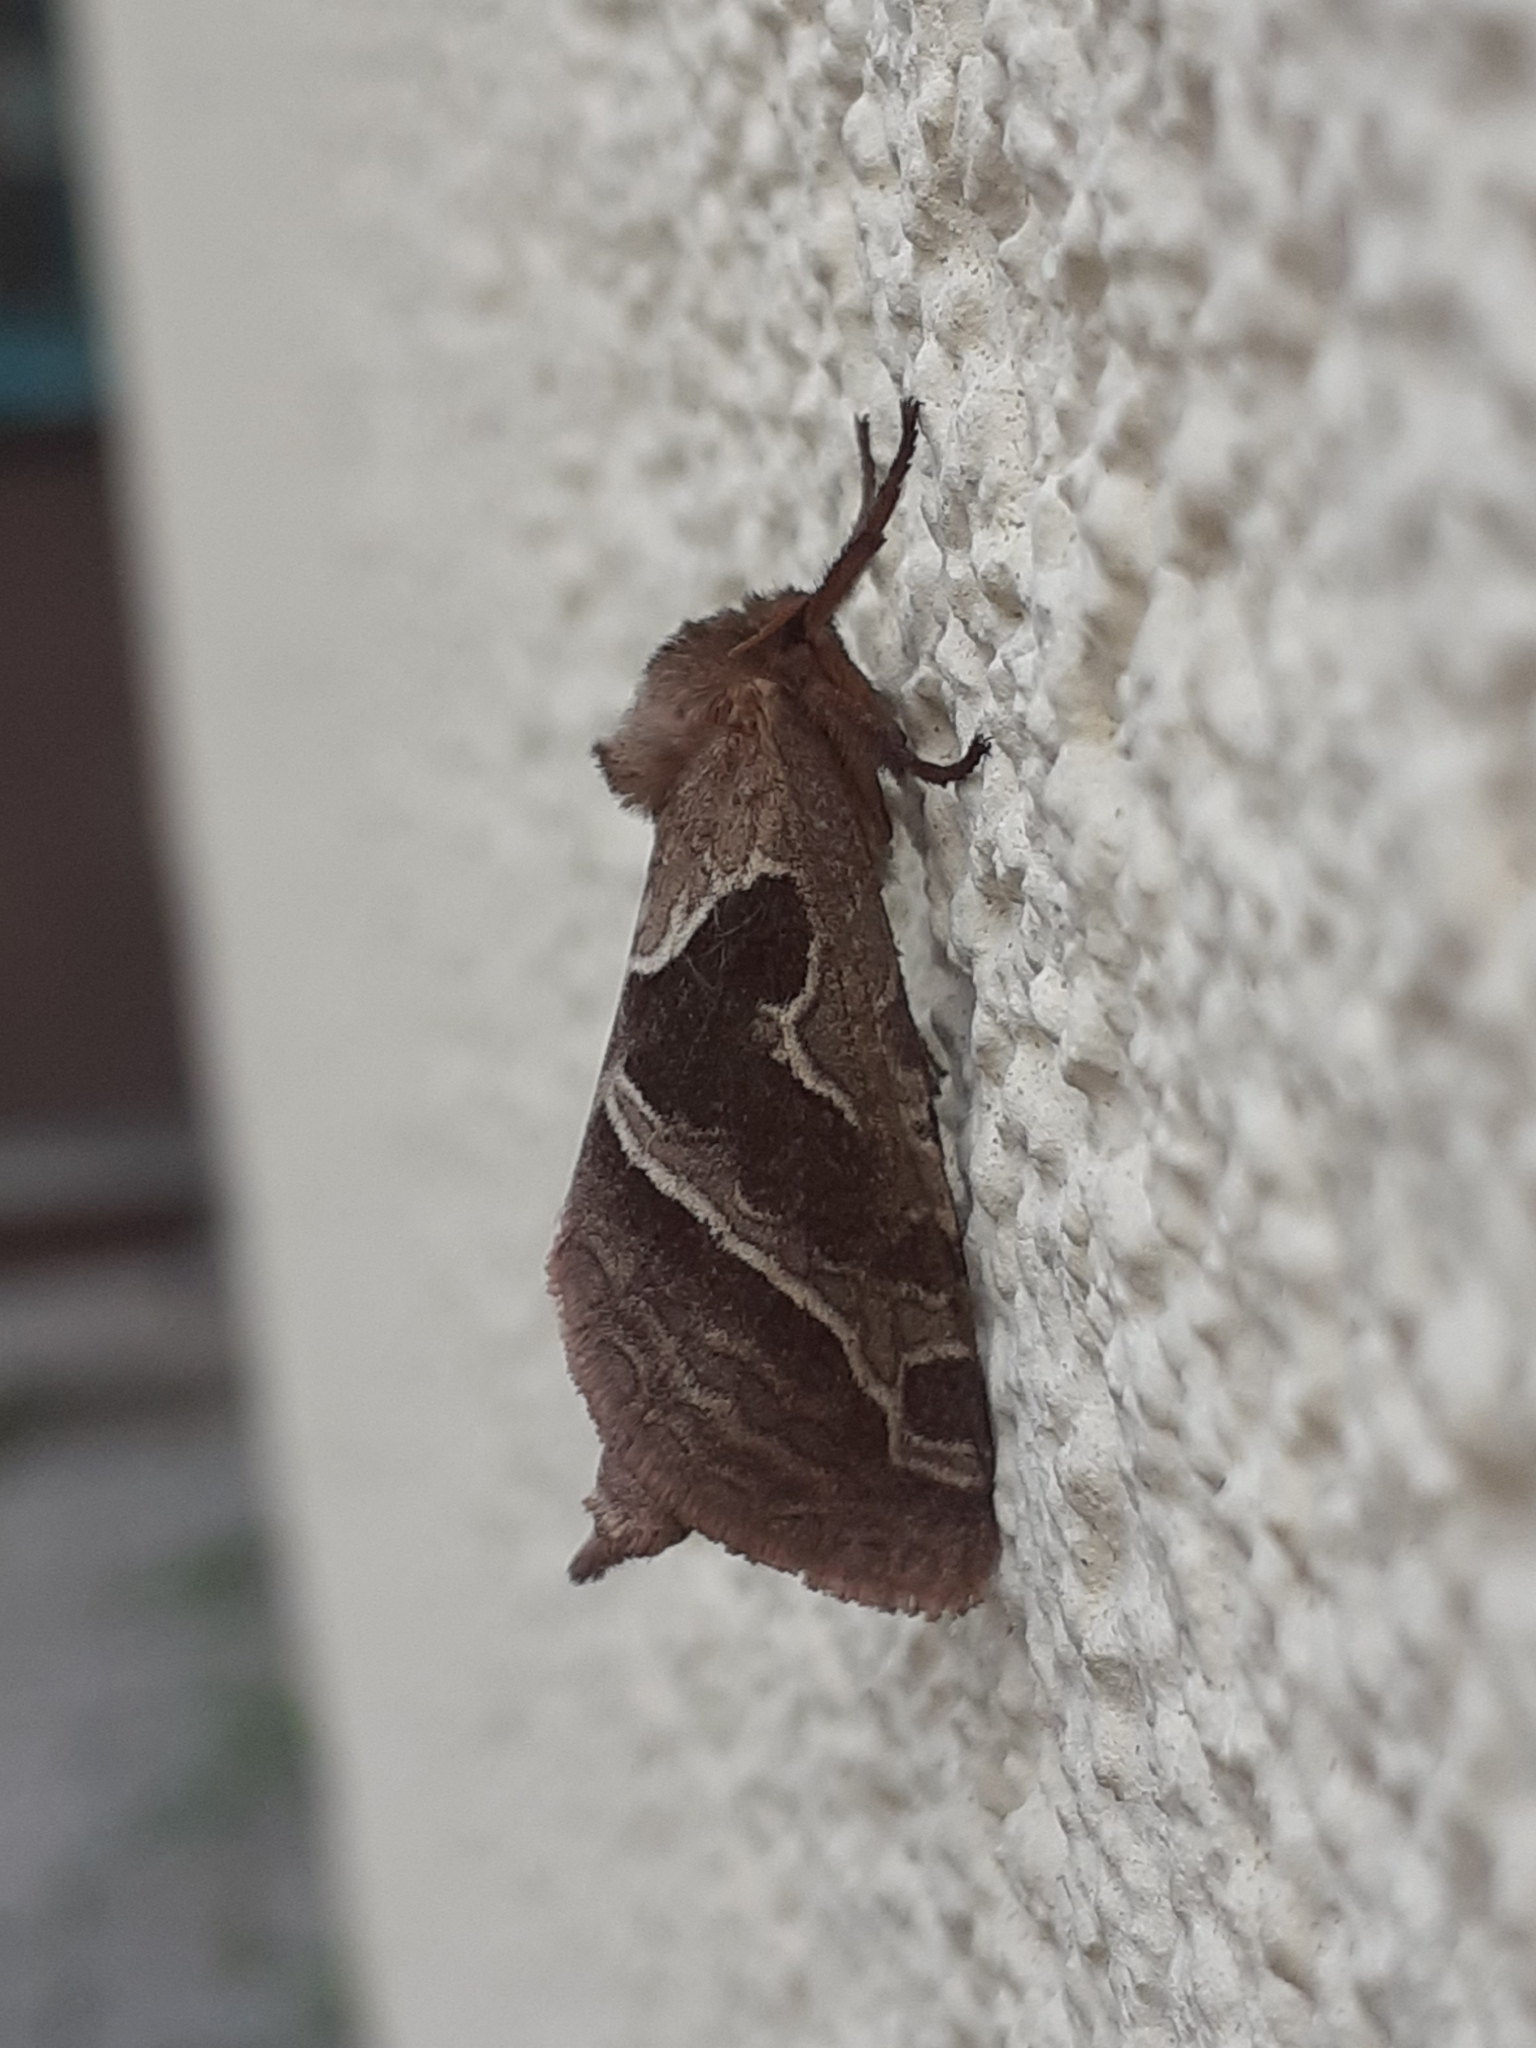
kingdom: Animalia
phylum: Arthropoda
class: Insecta
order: Lepidoptera
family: Hepialidae
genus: Triodia
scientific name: Triodia sylvina
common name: Orange swift
